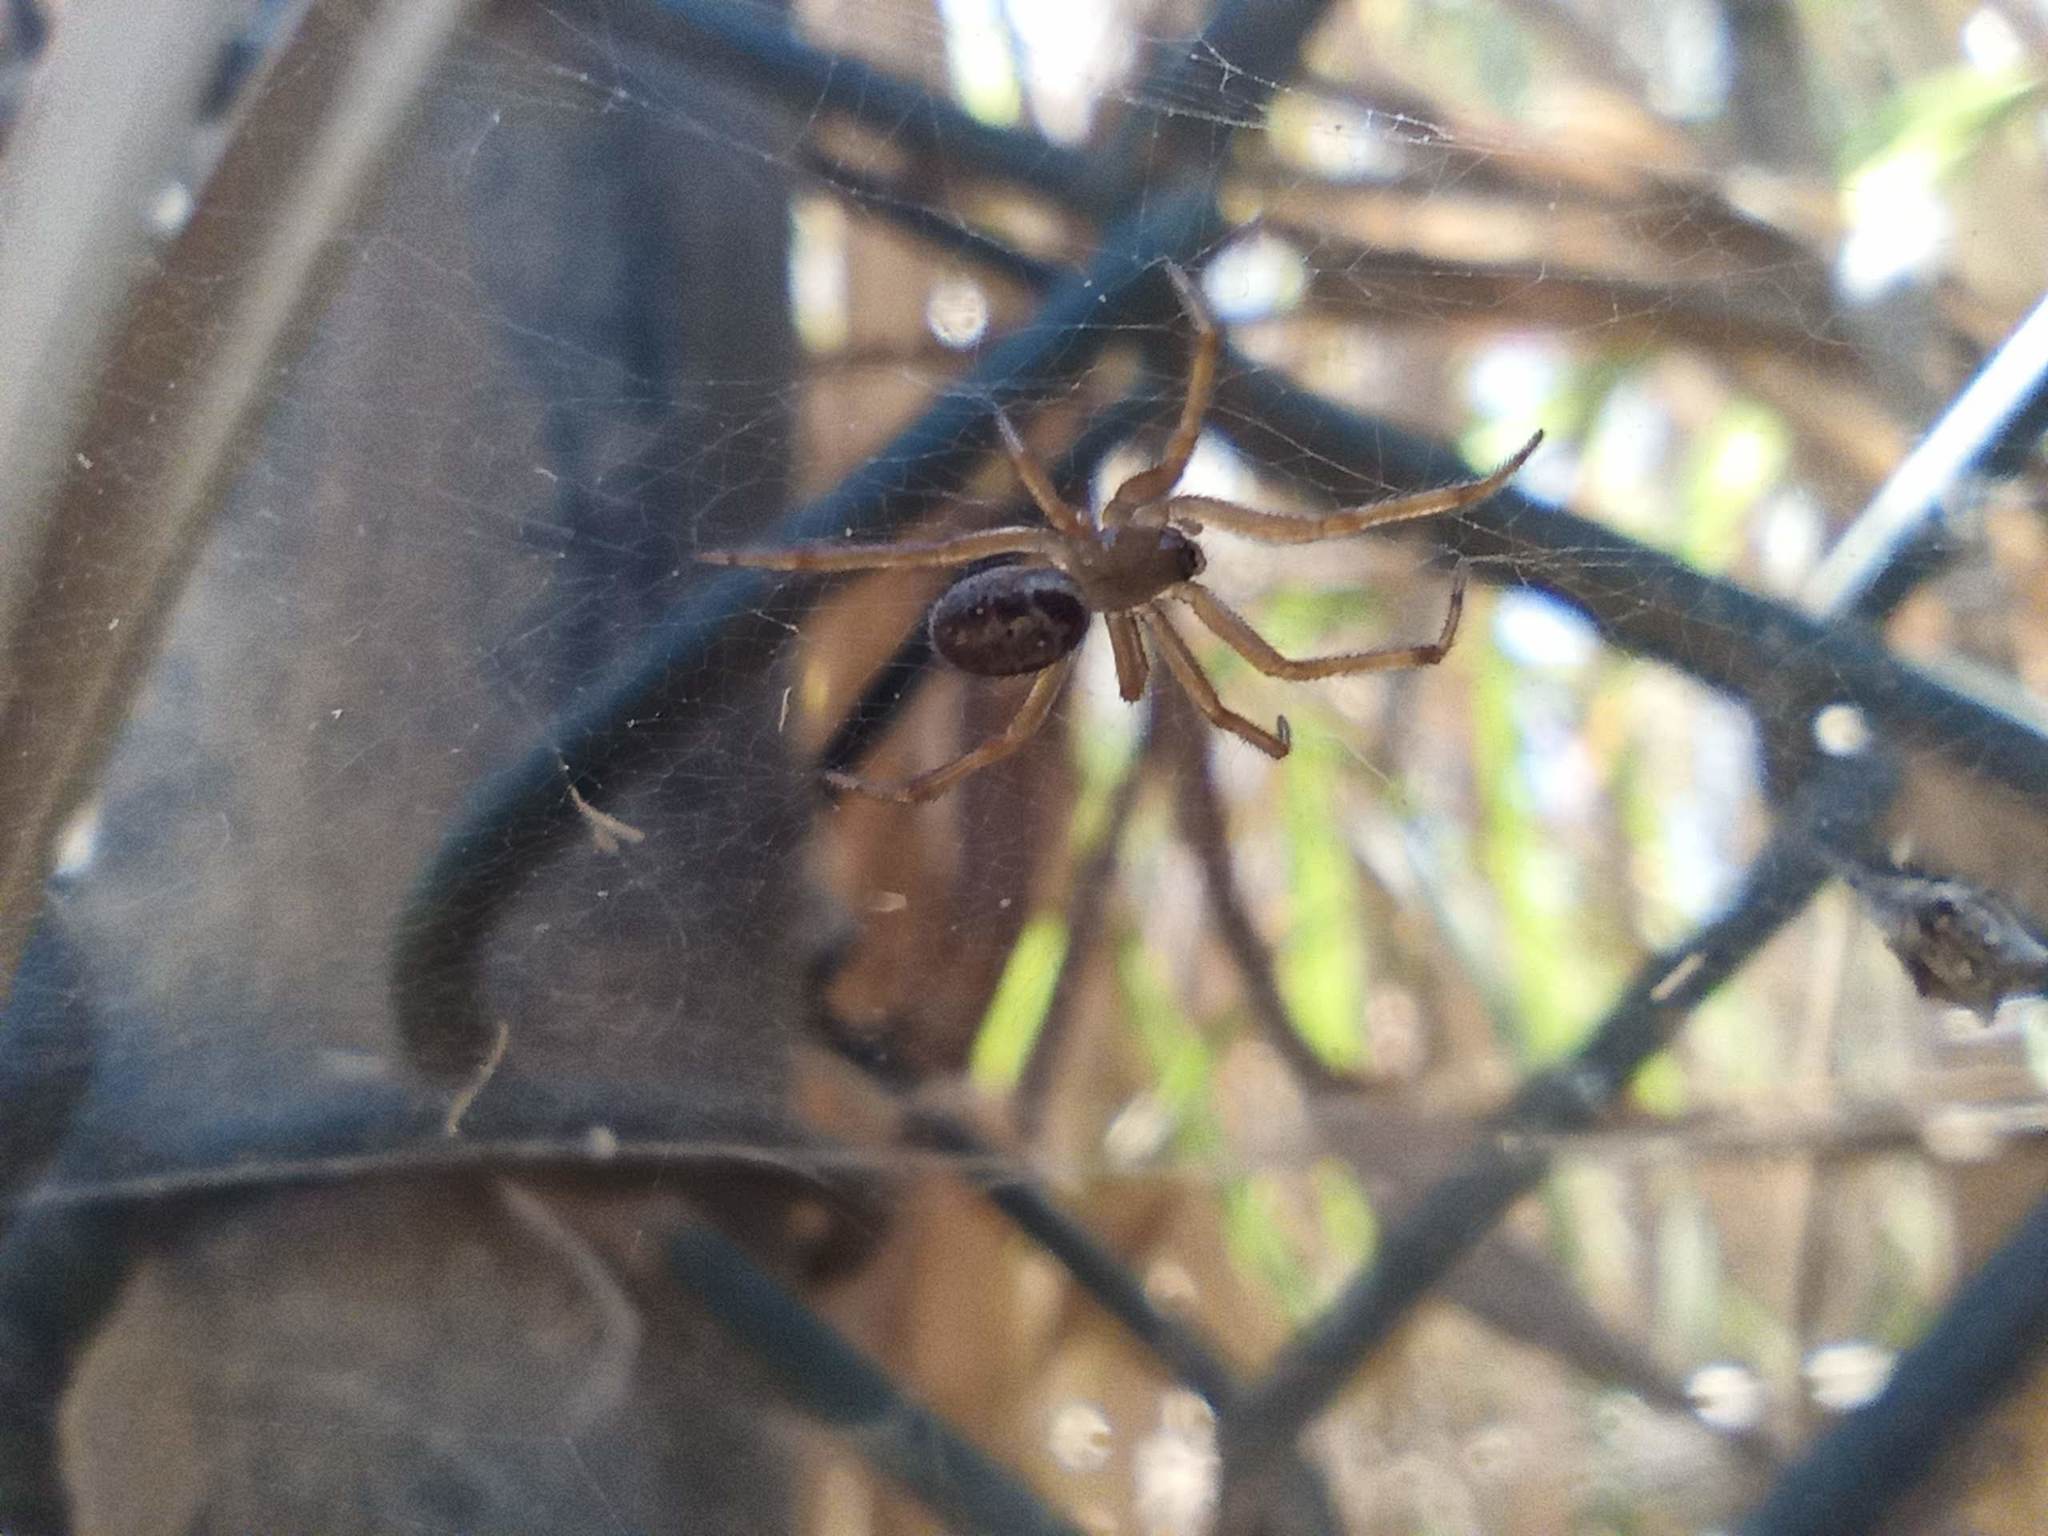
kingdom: Animalia
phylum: Arthropoda
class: Arachnida
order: Araneae
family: Theridiidae
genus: Steatoda
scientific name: Steatoda nobilis
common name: Cobweb weaver
